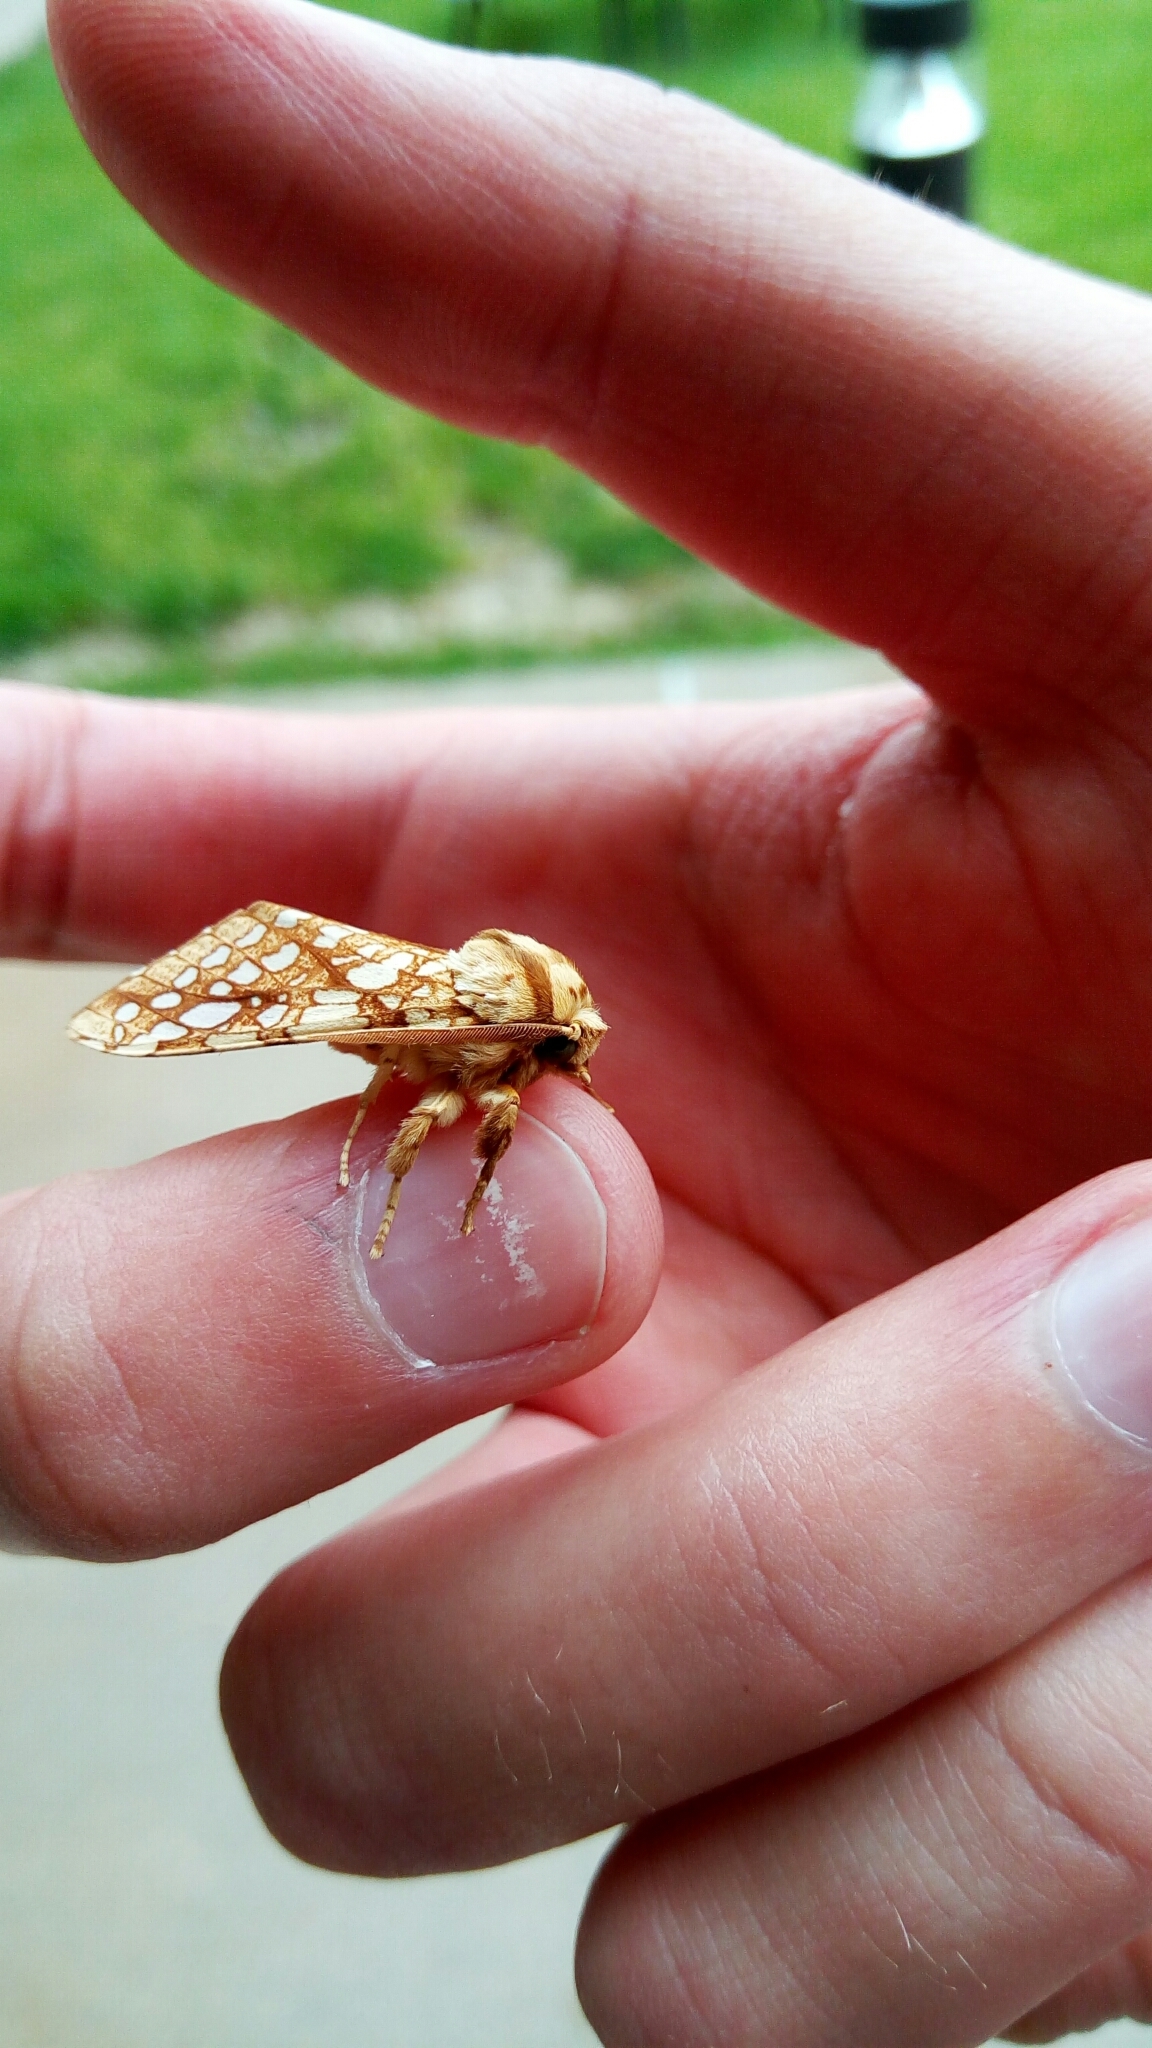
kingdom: Animalia
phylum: Arthropoda
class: Insecta
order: Lepidoptera
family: Erebidae
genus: Lophocampa
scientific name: Lophocampa caryae
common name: Hickory tussock moth
